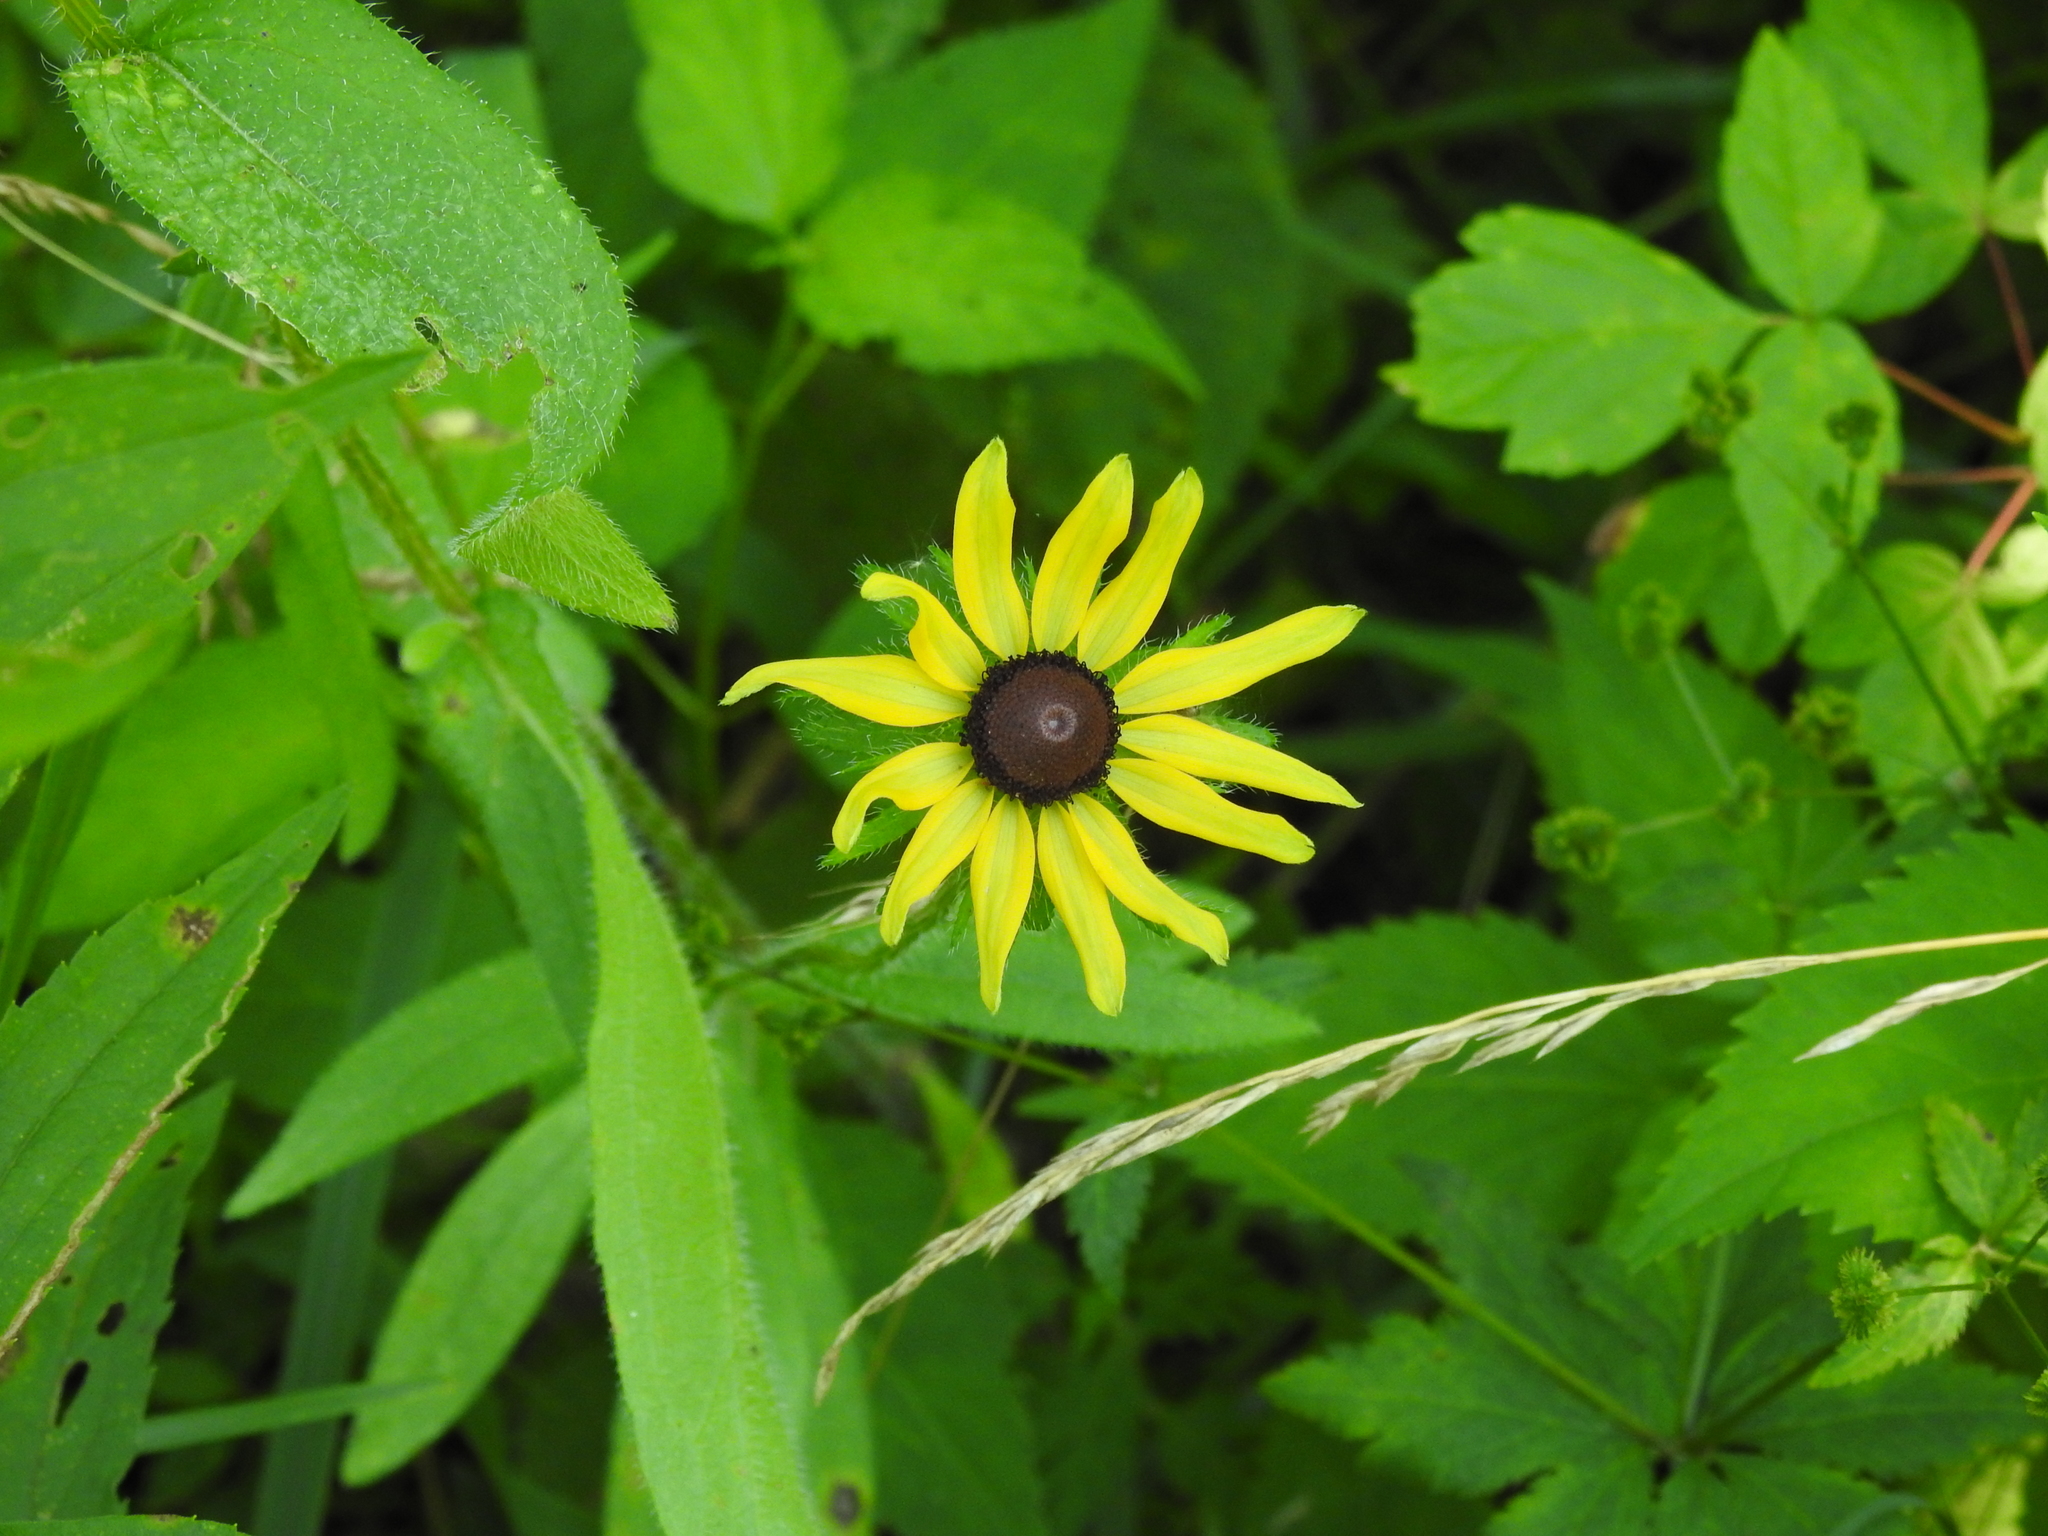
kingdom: Plantae
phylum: Tracheophyta
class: Magnoliopsida
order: Asterales
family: Asteraceae
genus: Rudbeckia
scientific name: Rudbeckia hirta
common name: Black-eyed-susan
